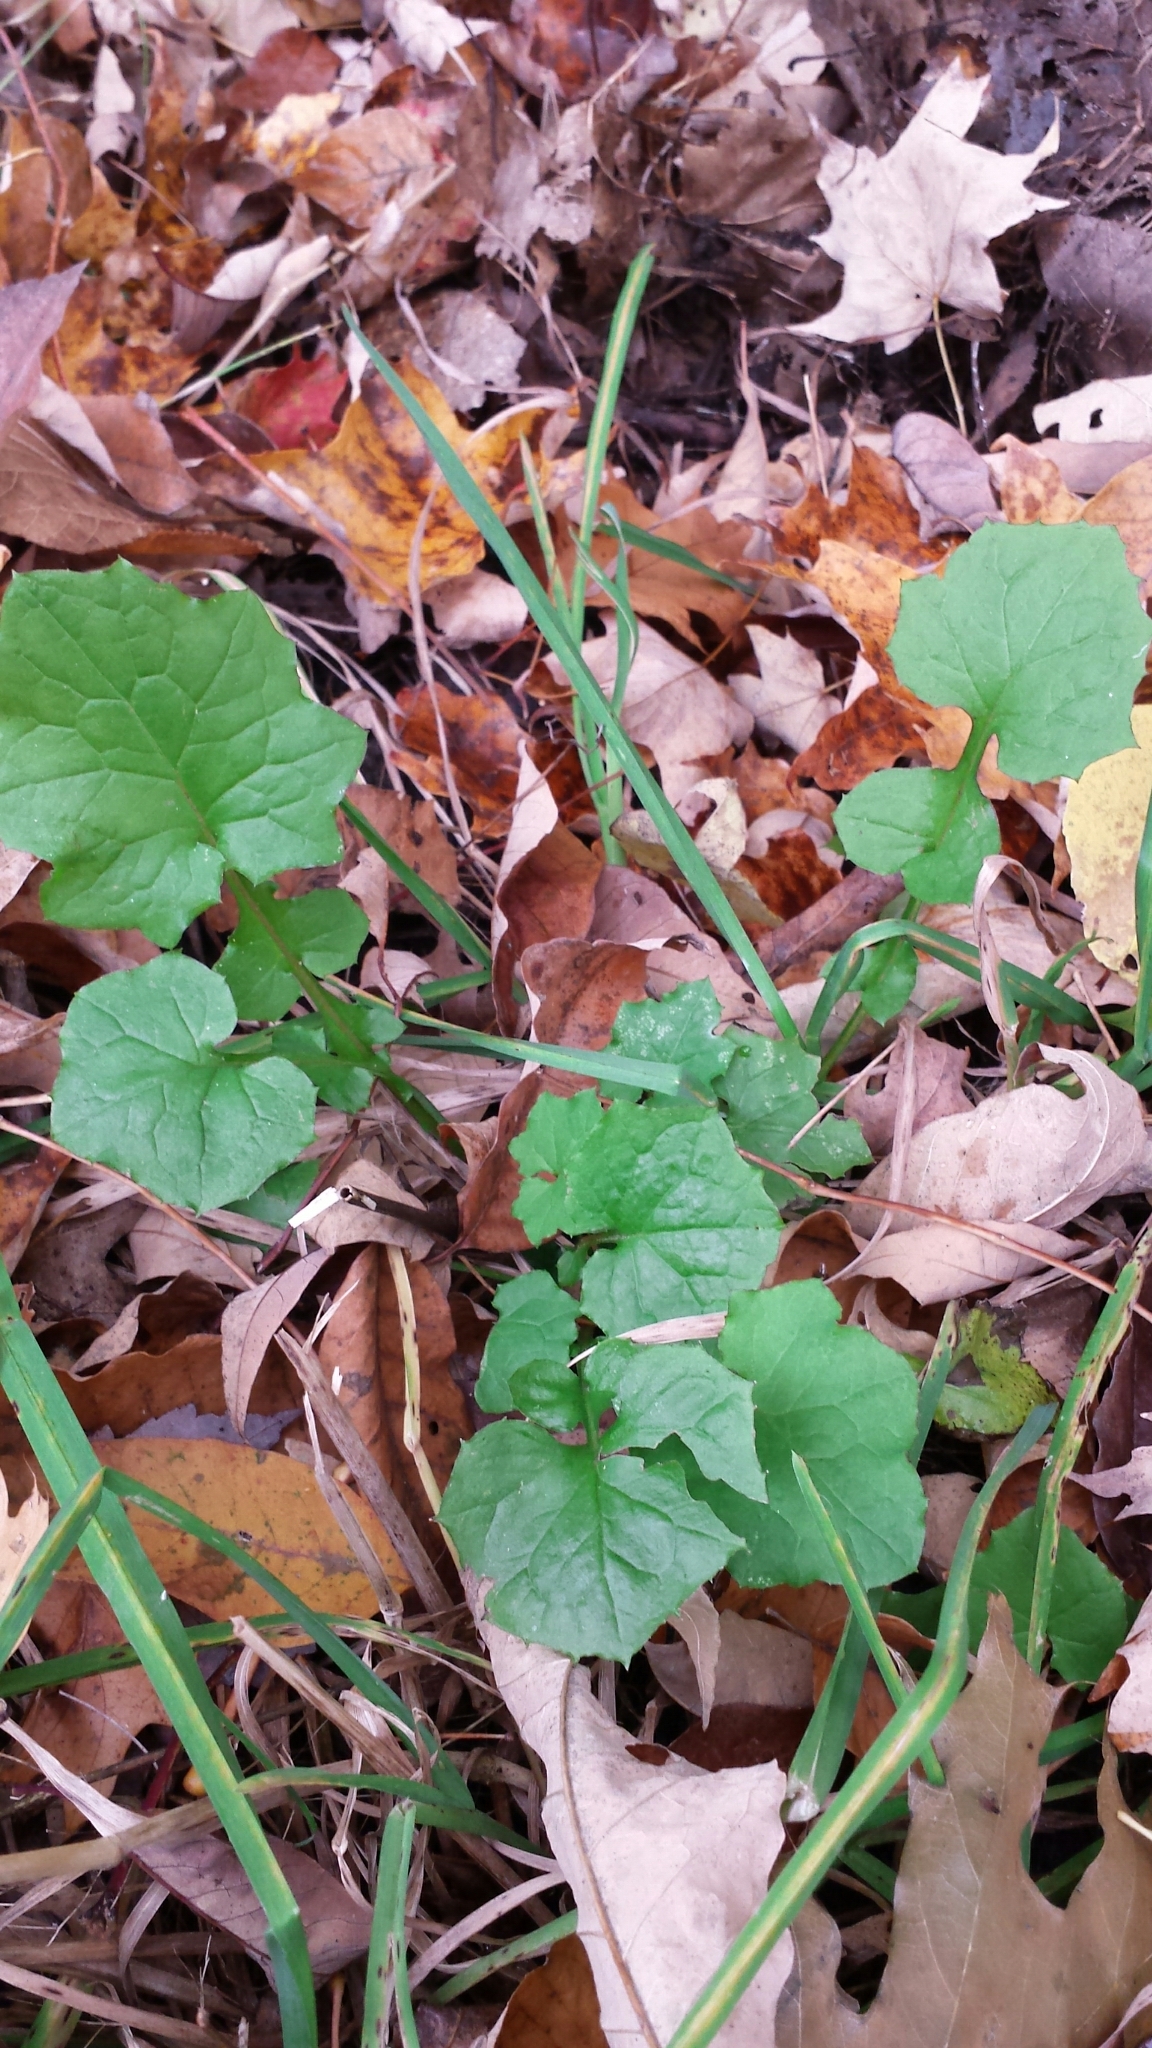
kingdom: Plantae
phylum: Tracheophyta
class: Magnoliopsida
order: Asterales
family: Asteraceae
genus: Mycelis
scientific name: Mycelis muralis
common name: Wall lettuce
